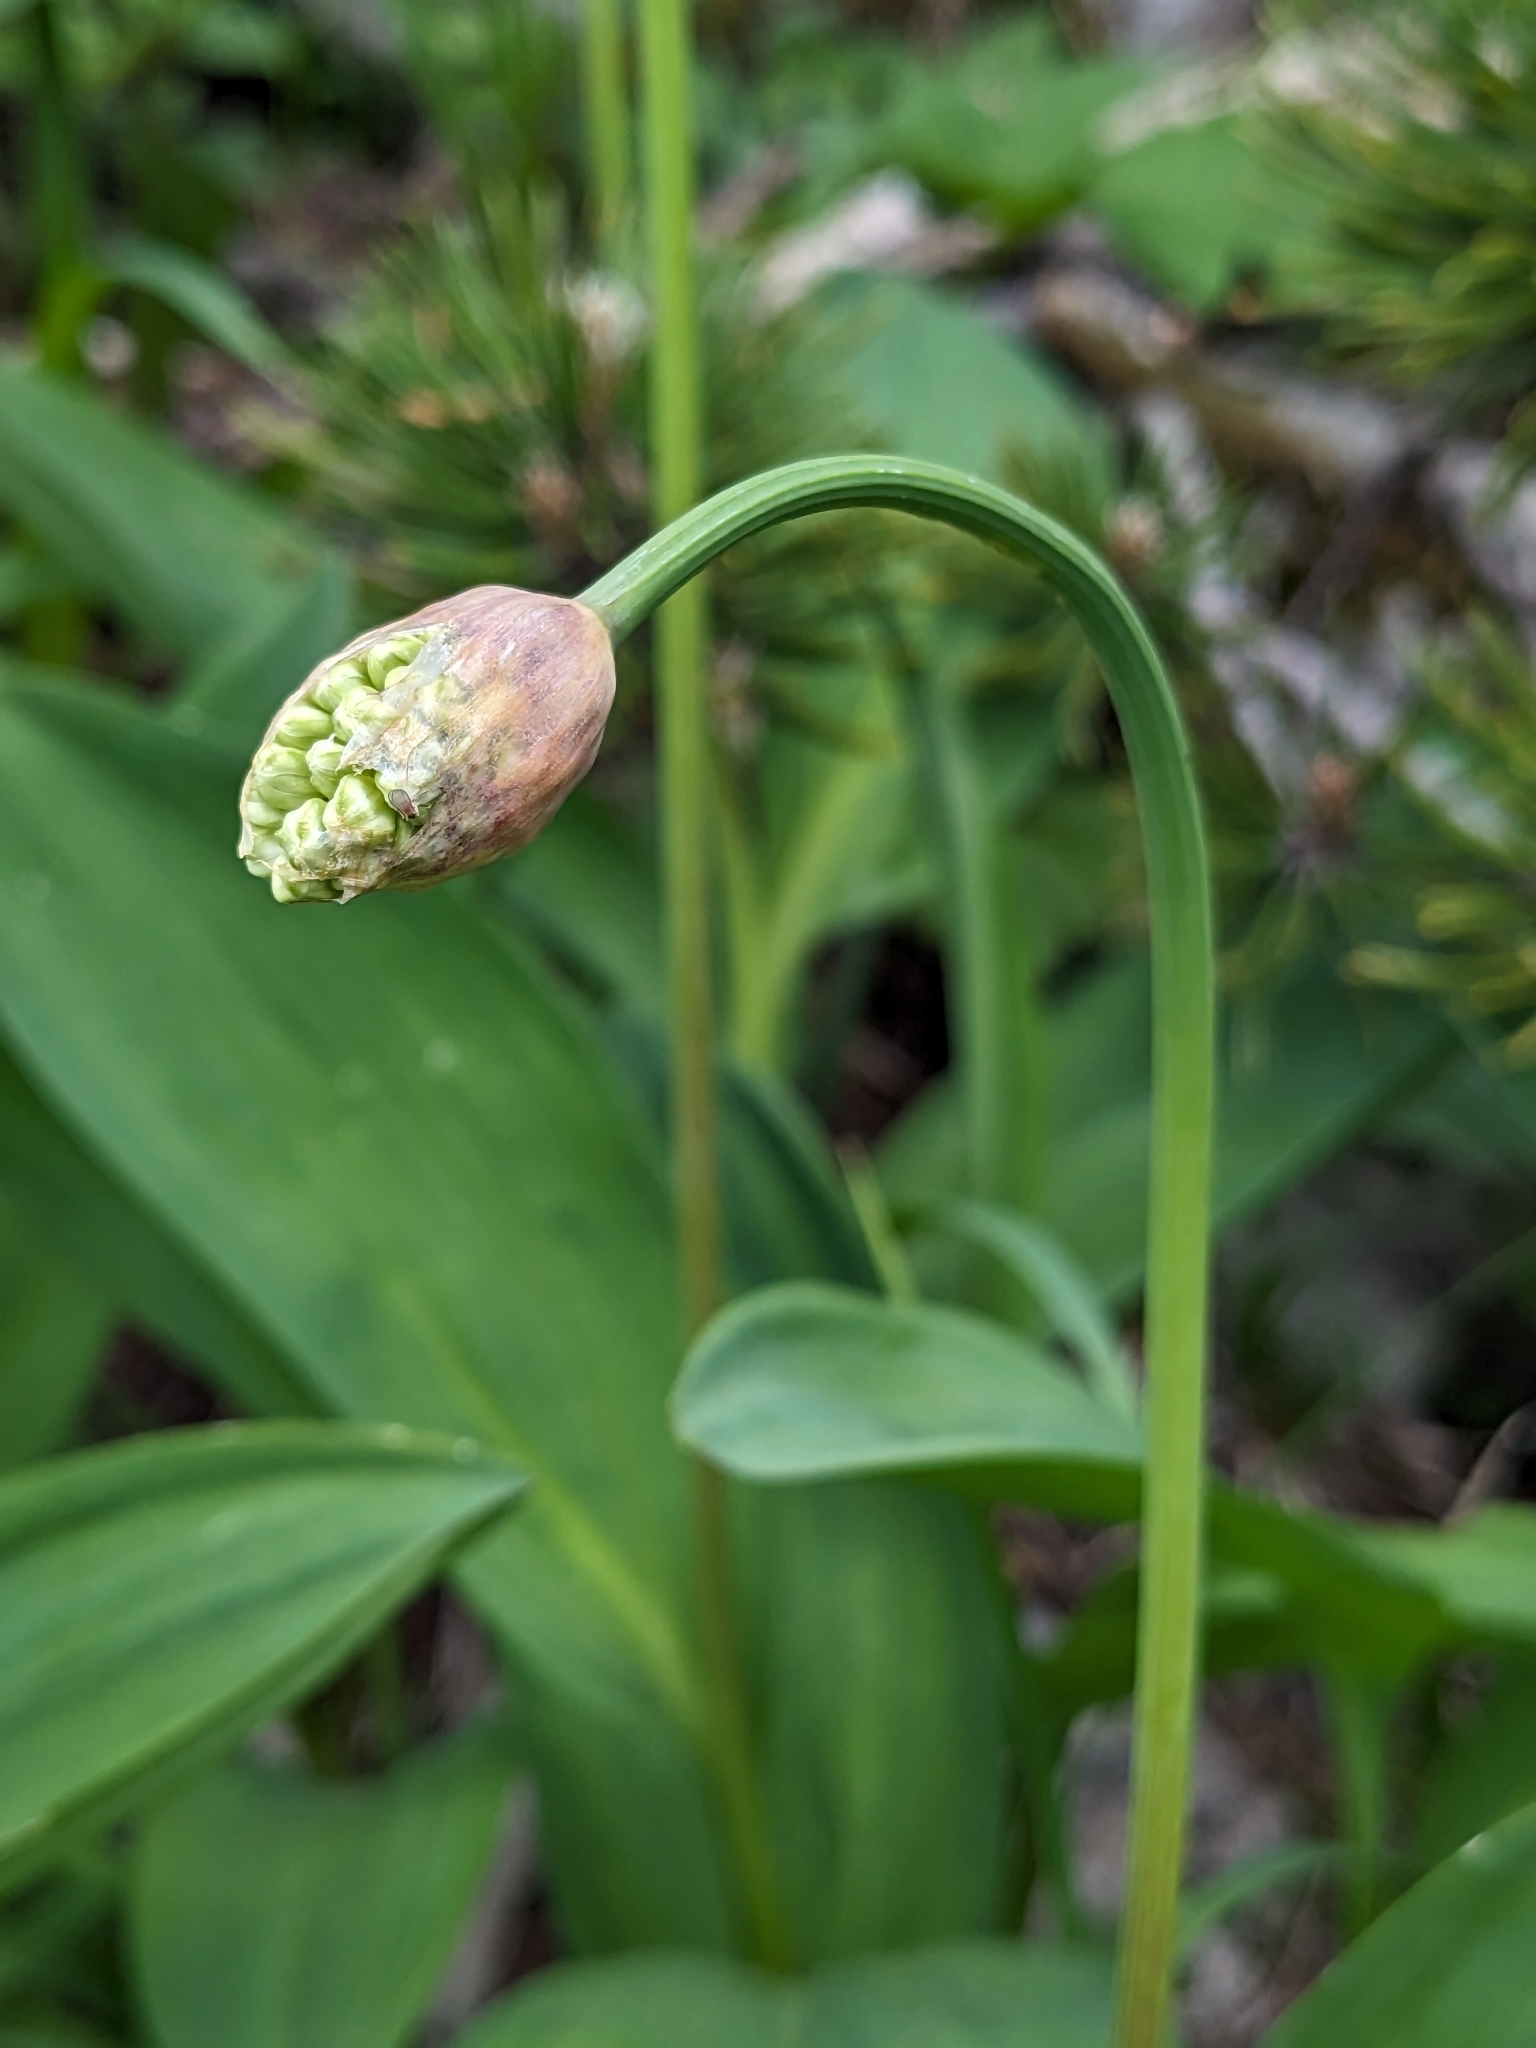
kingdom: Plantae
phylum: Tracheophyta
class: Liliopsida
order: Asparagales
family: Amaryllidaceae
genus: Allium
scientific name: Allium victorialis
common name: Alpine leek
